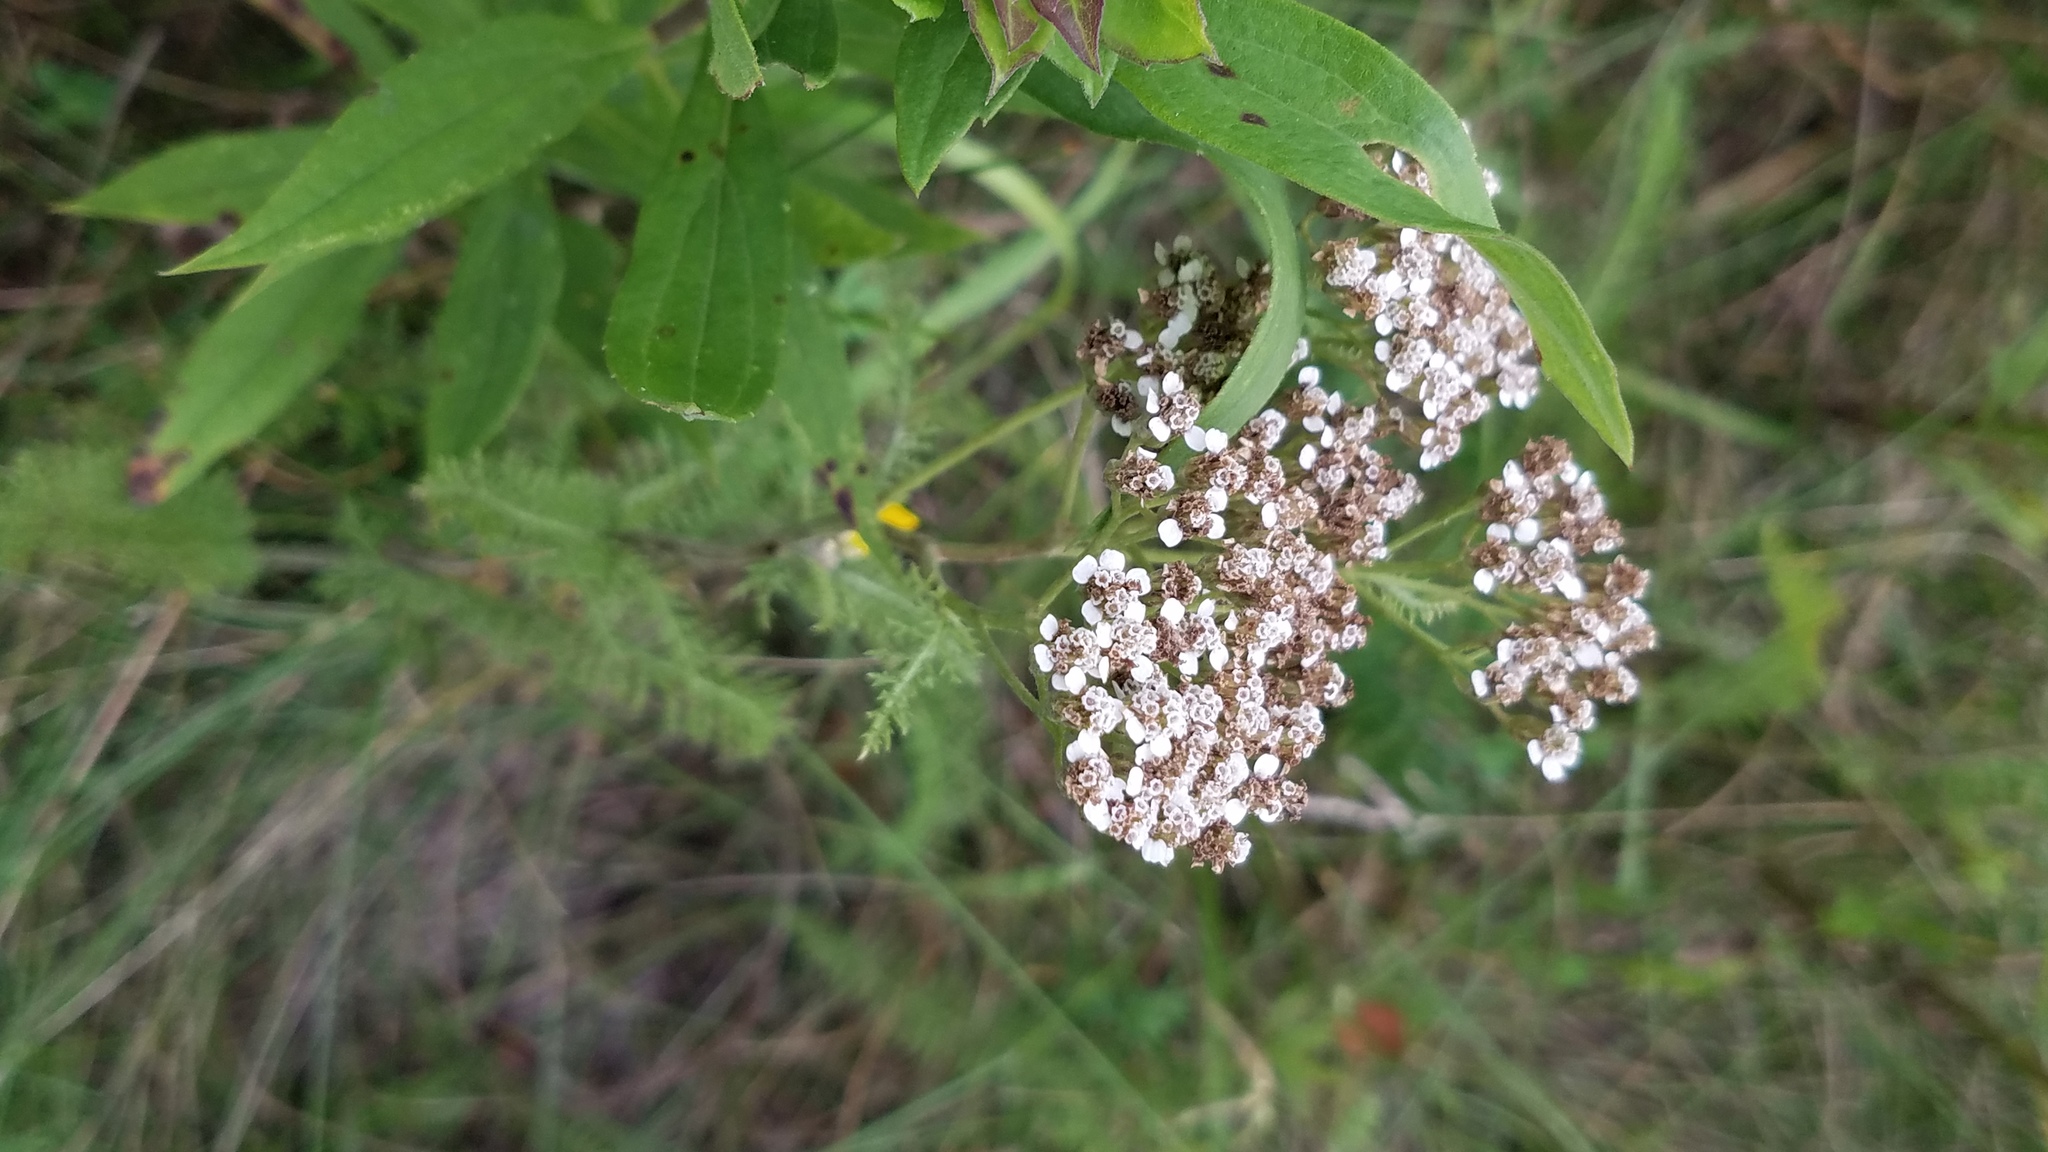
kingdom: Plantae
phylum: Tracheophyta
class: Magnoliopsida
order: Asterales
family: Asteraceae
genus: Achillea
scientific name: Achillea millefolium
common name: Yarrow
